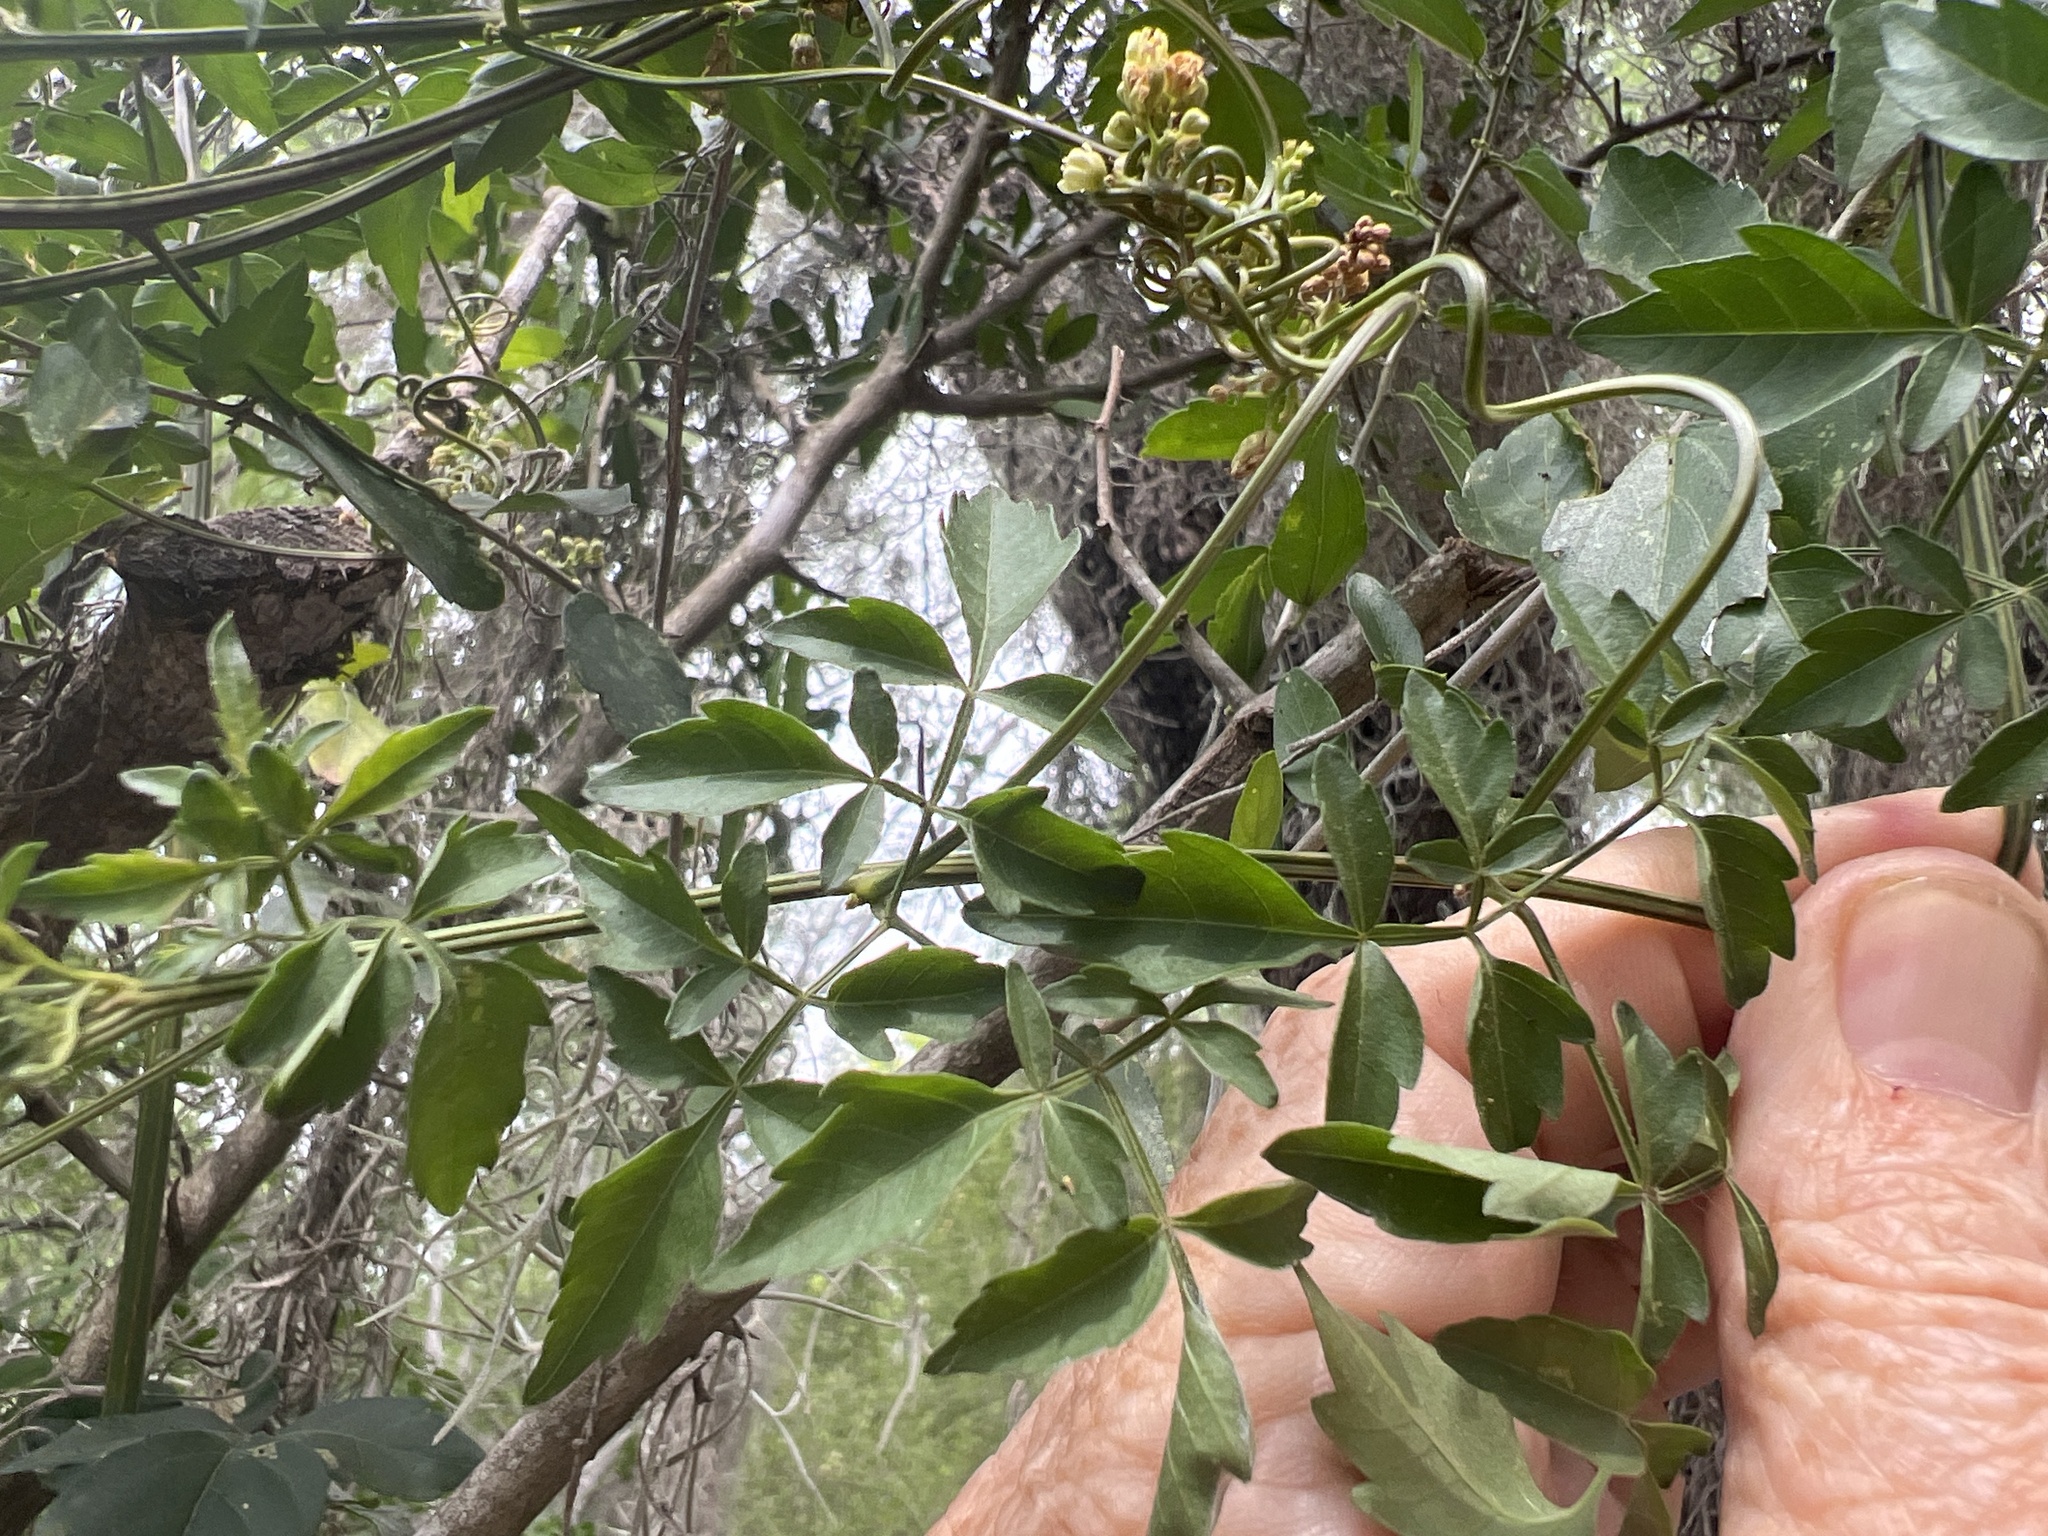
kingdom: Plantae
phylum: Tracheophyta
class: Magnoliopsida
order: Sapindales
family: Sapindaceae
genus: Serjania
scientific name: Serjania brachycarpa
